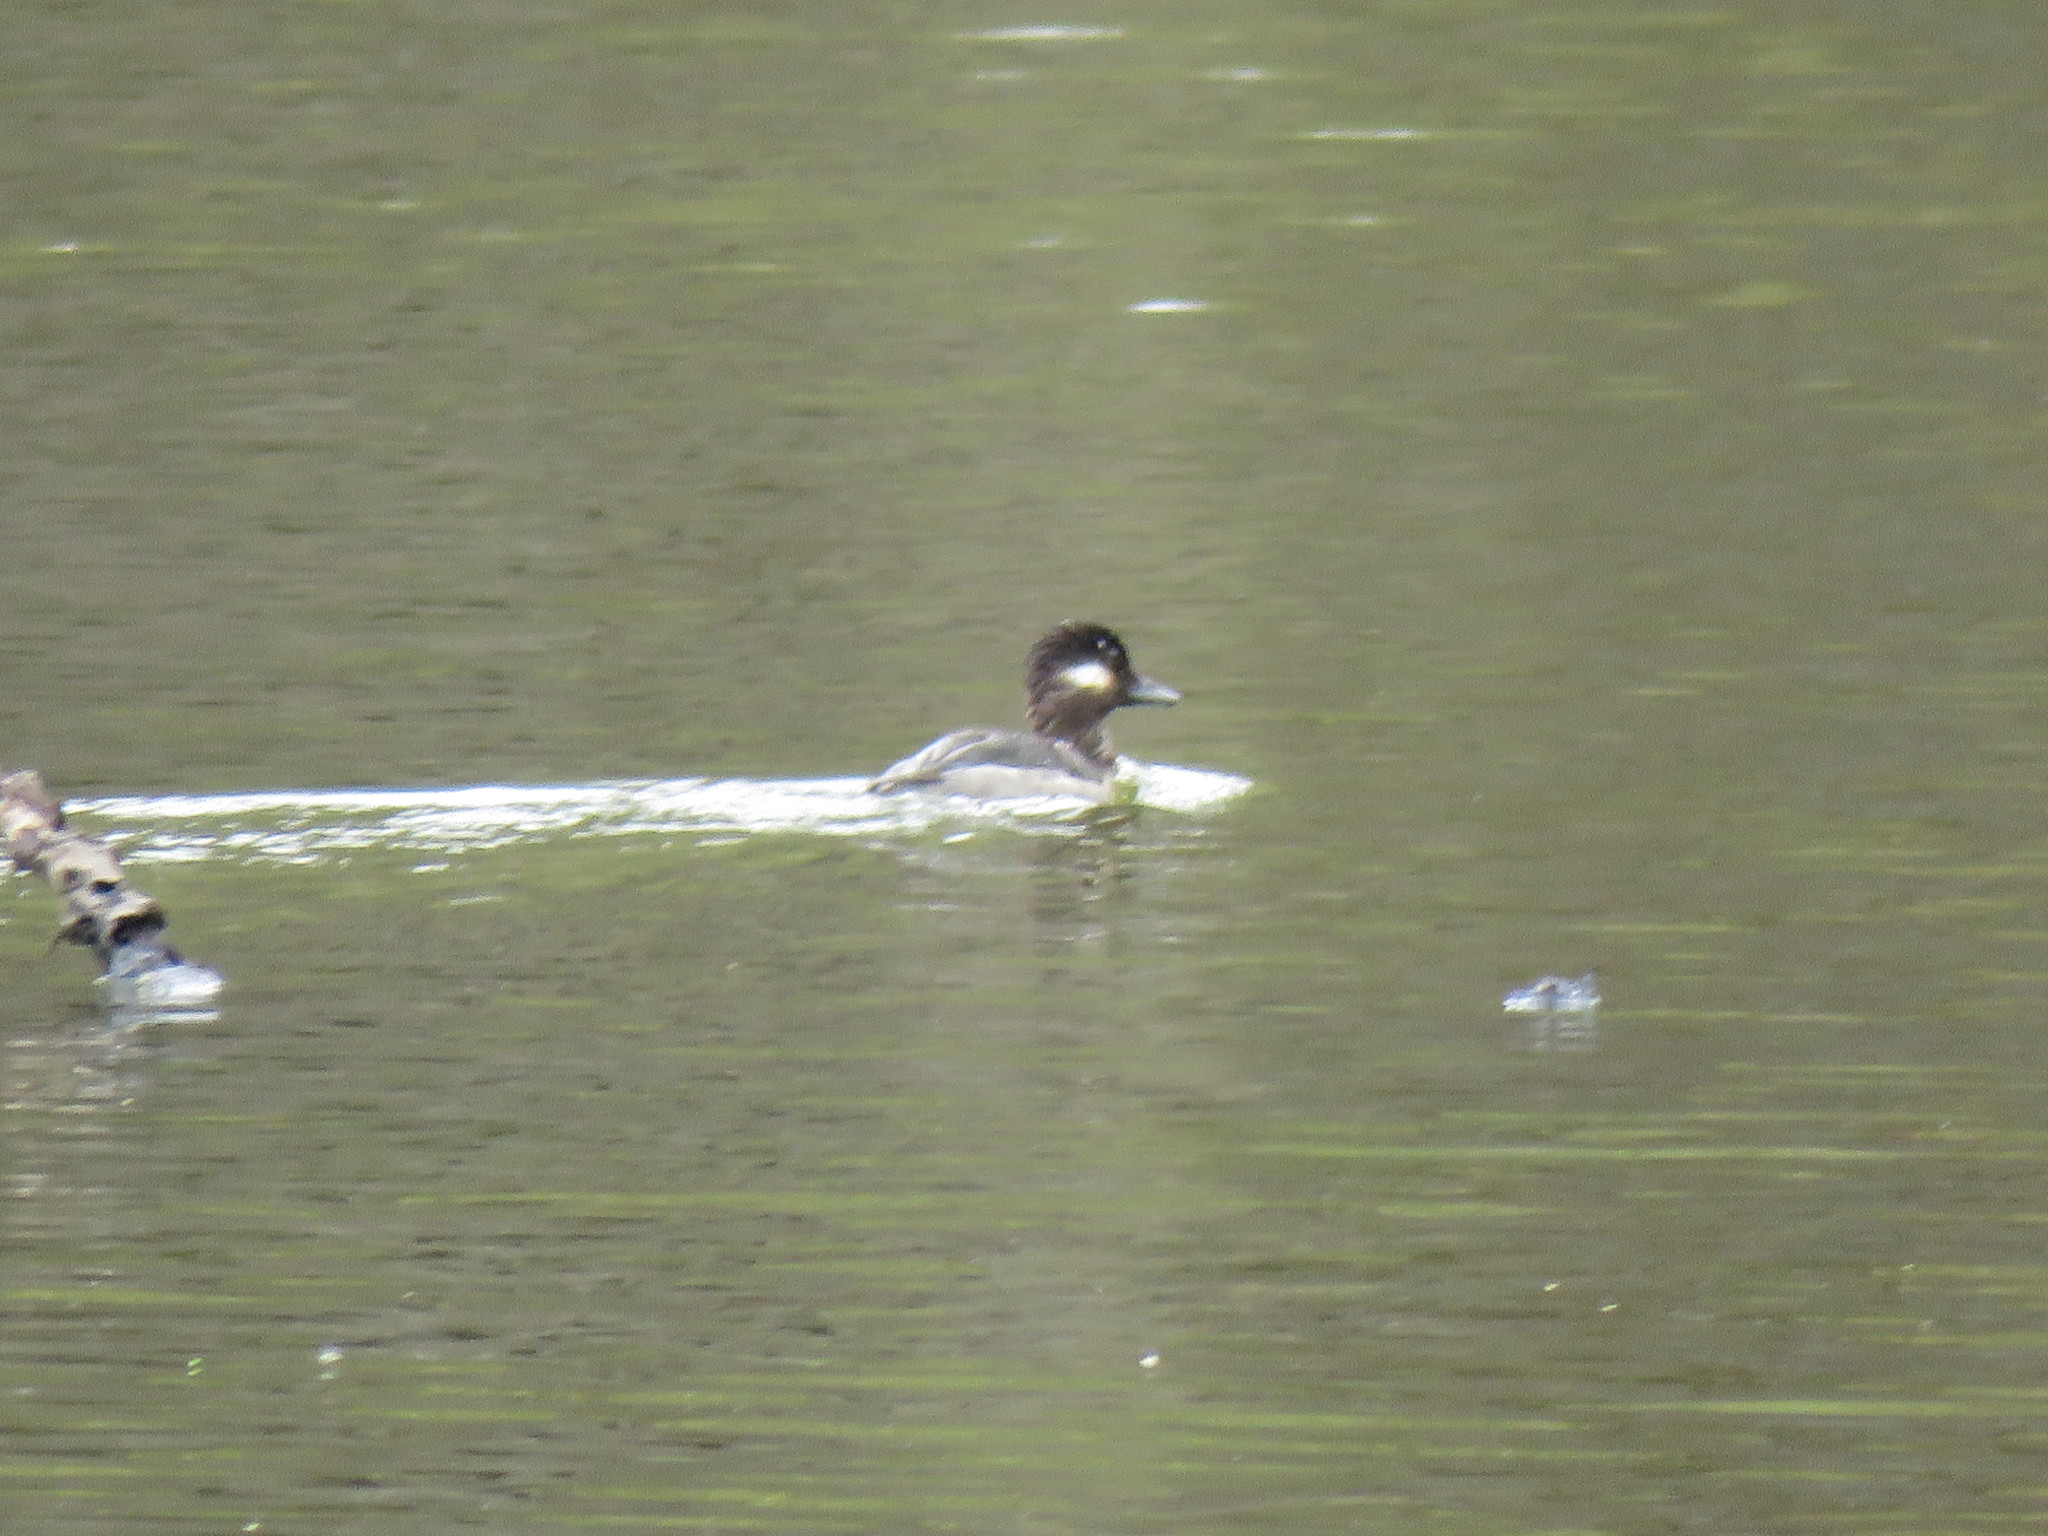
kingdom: Animalia
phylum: Chordata
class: Aves
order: Anseriformes
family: Anatidae
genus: Bucephala
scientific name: Bucephala albeola
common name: Bufflehead
